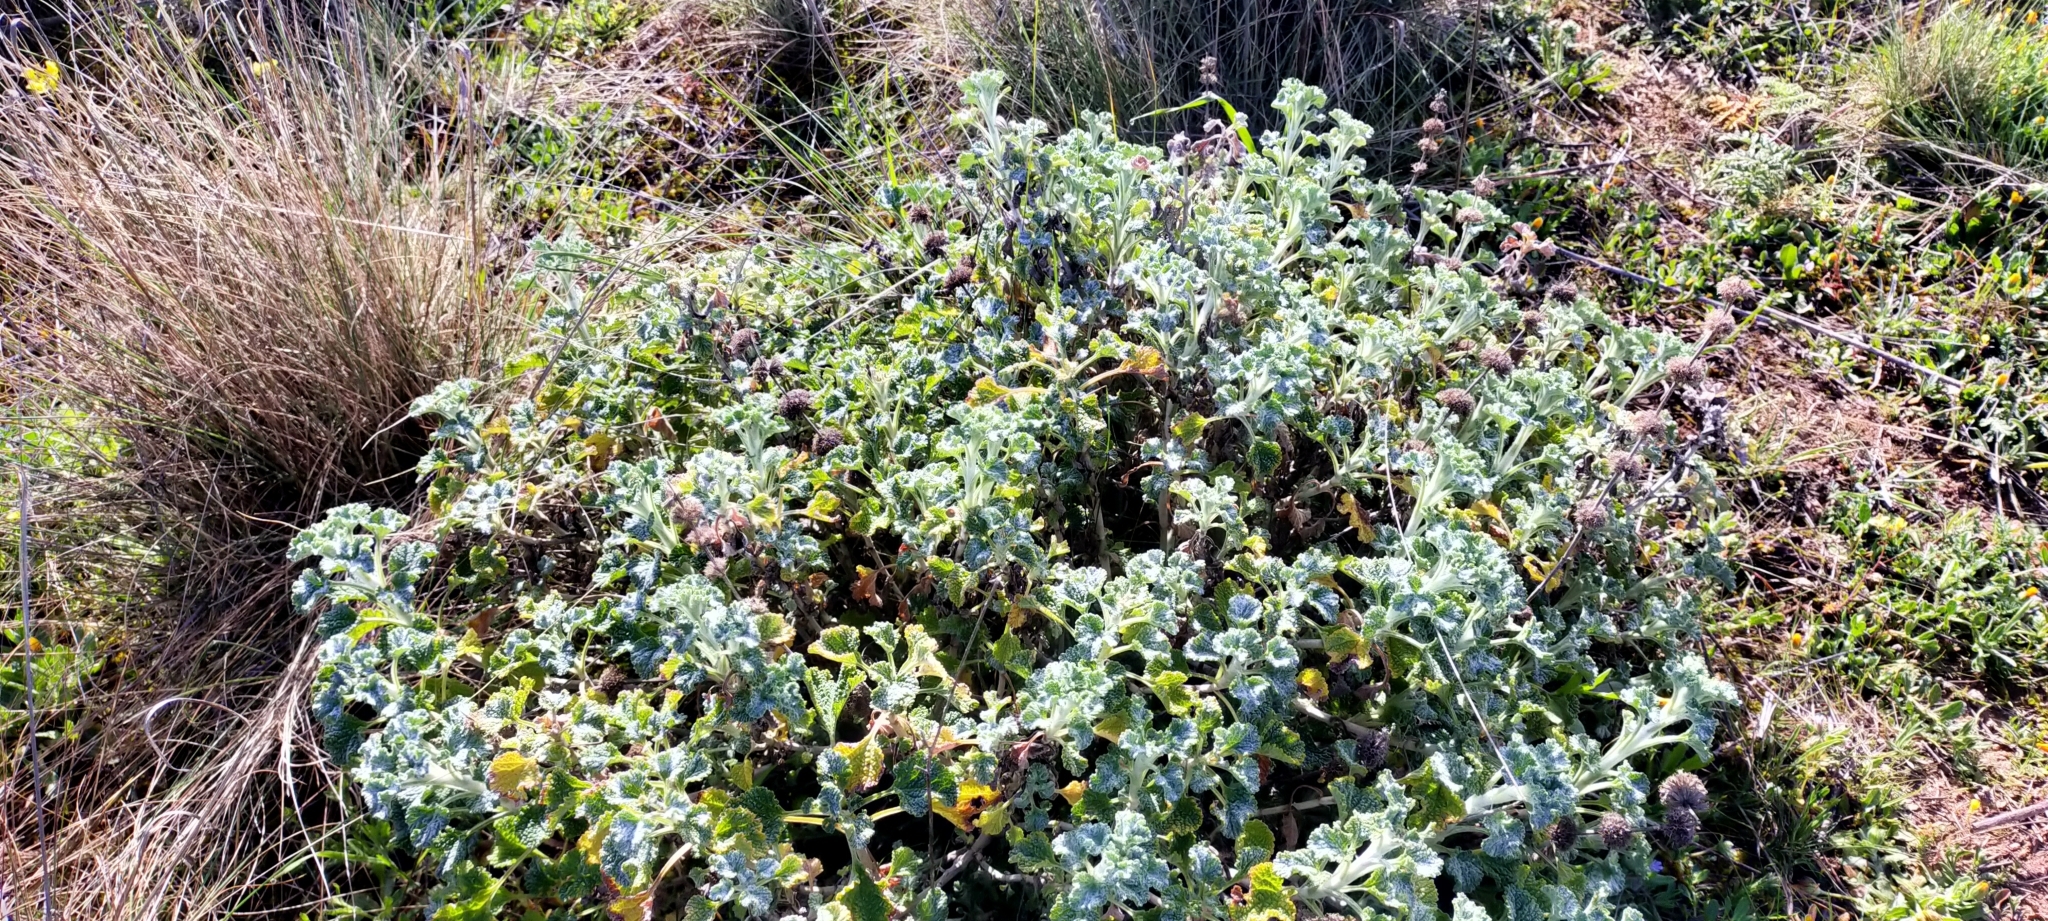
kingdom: Plantae
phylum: Tracheophyta
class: Magnoliopsida
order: Lamiales
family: Lamiaceae
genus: Marrubium
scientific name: Marrubium vulgare
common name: Horehound
